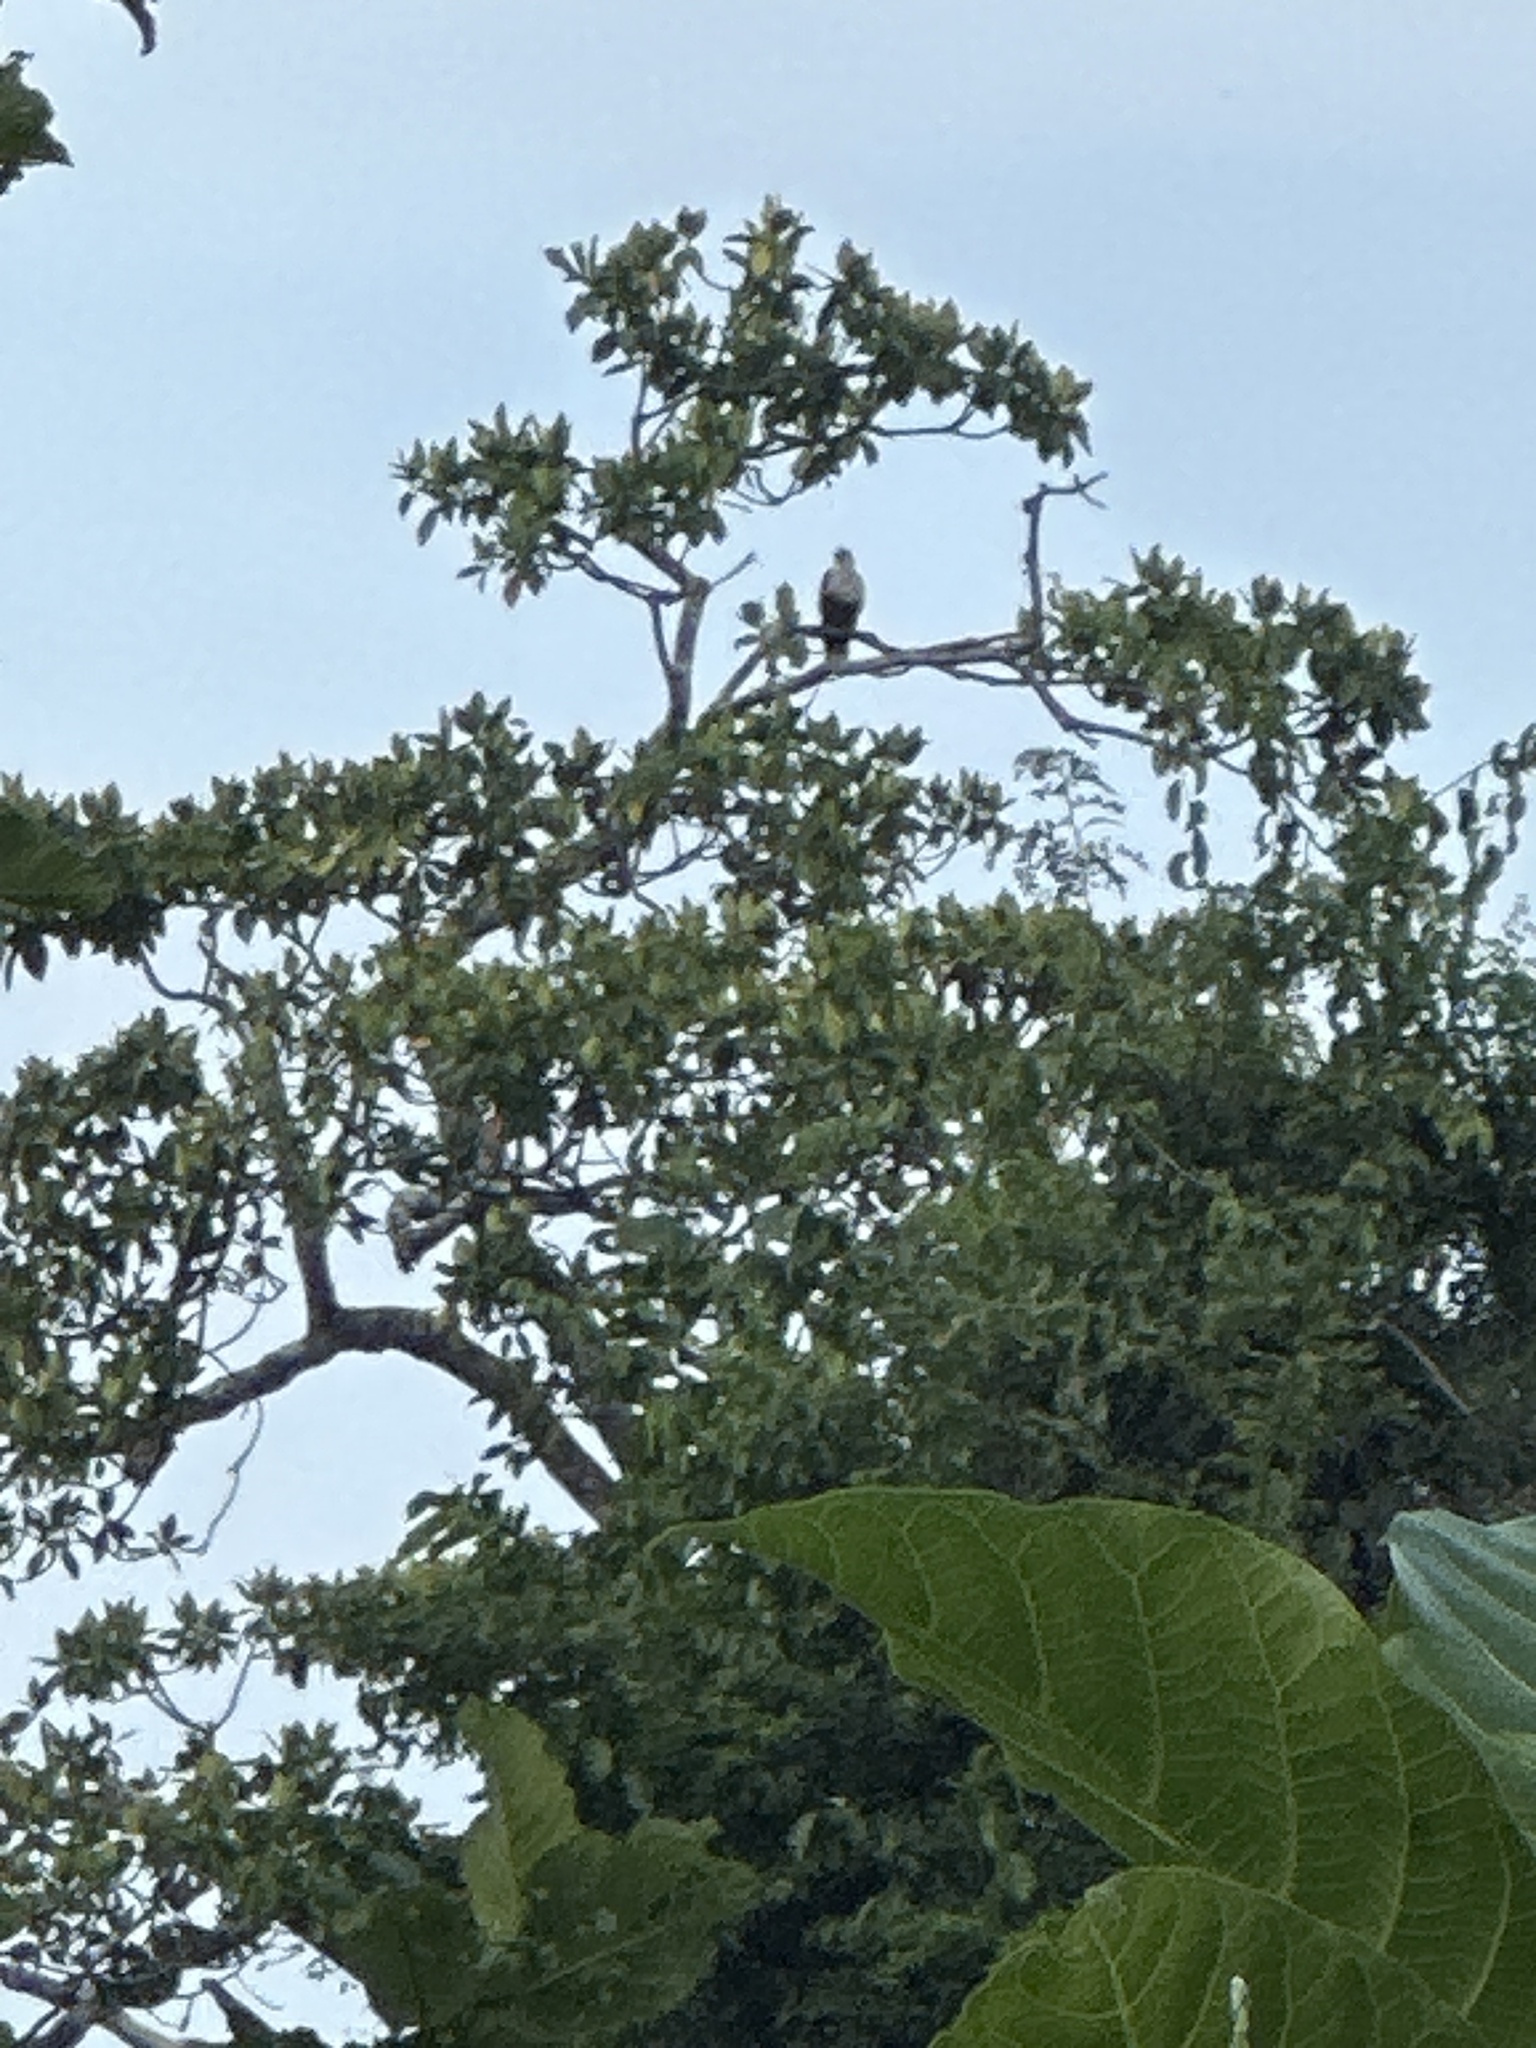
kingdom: Animalia
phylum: Chordata
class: Aves
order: Accipitriformes
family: Accipitridae
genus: Haliastur
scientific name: Haliastur indus
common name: Brahminy kite
